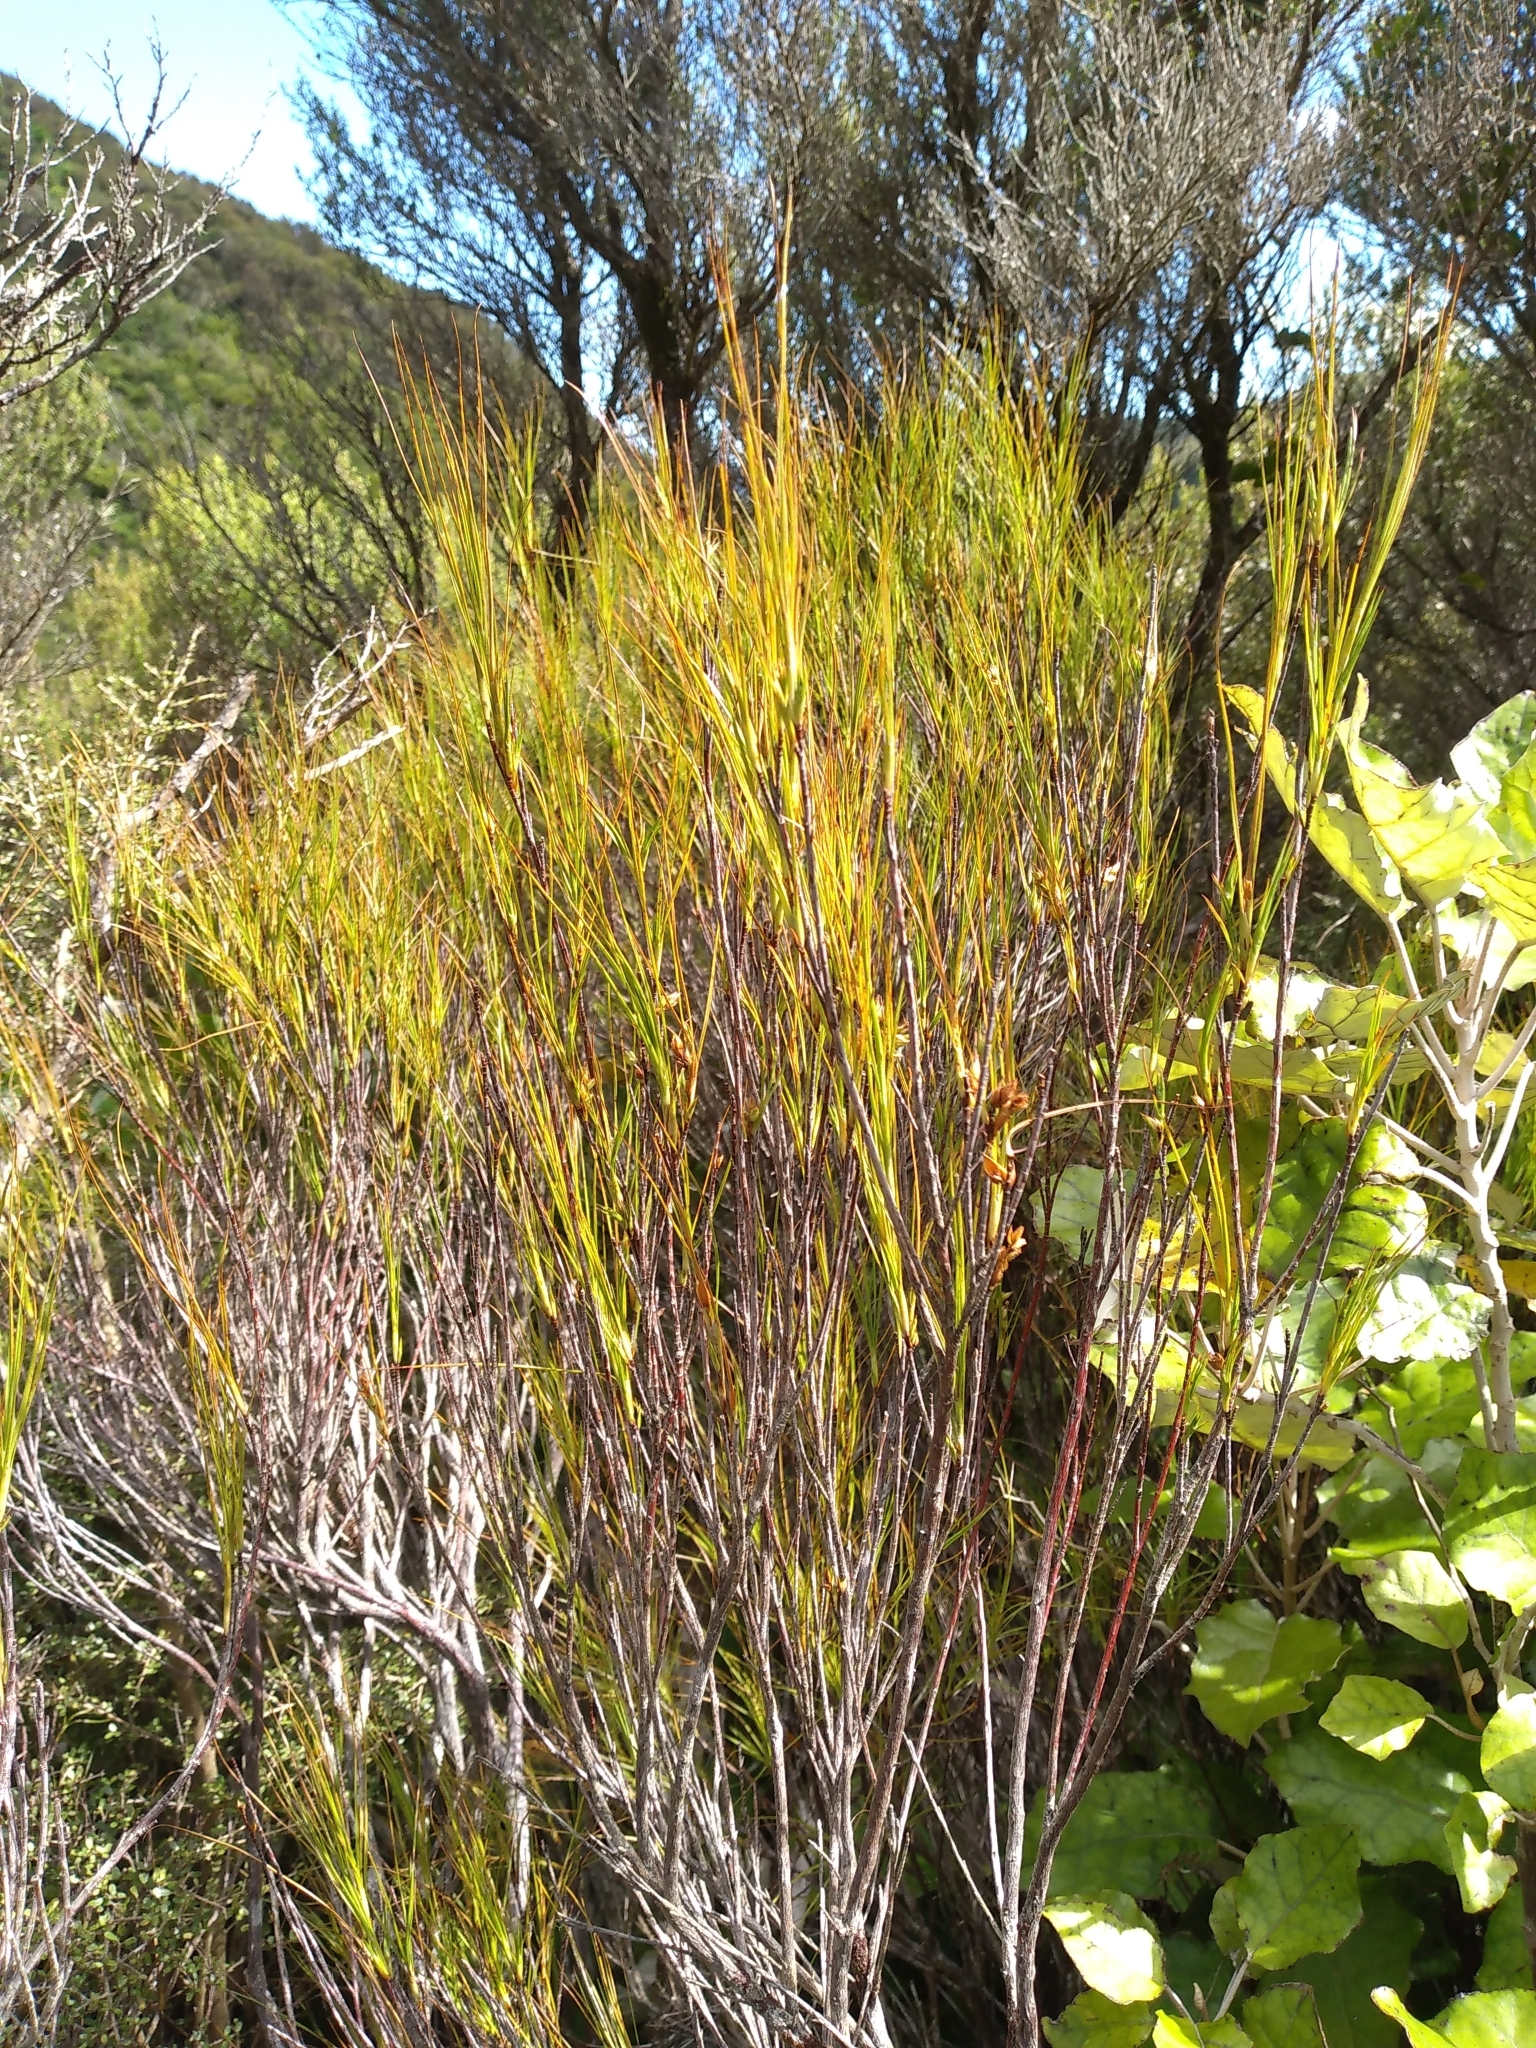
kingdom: Plantae
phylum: Tracheophyta
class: Magnoliopsida
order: Ericales
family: Ericaceae
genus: Dracophyllum
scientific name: Dracophyllum filifolium
